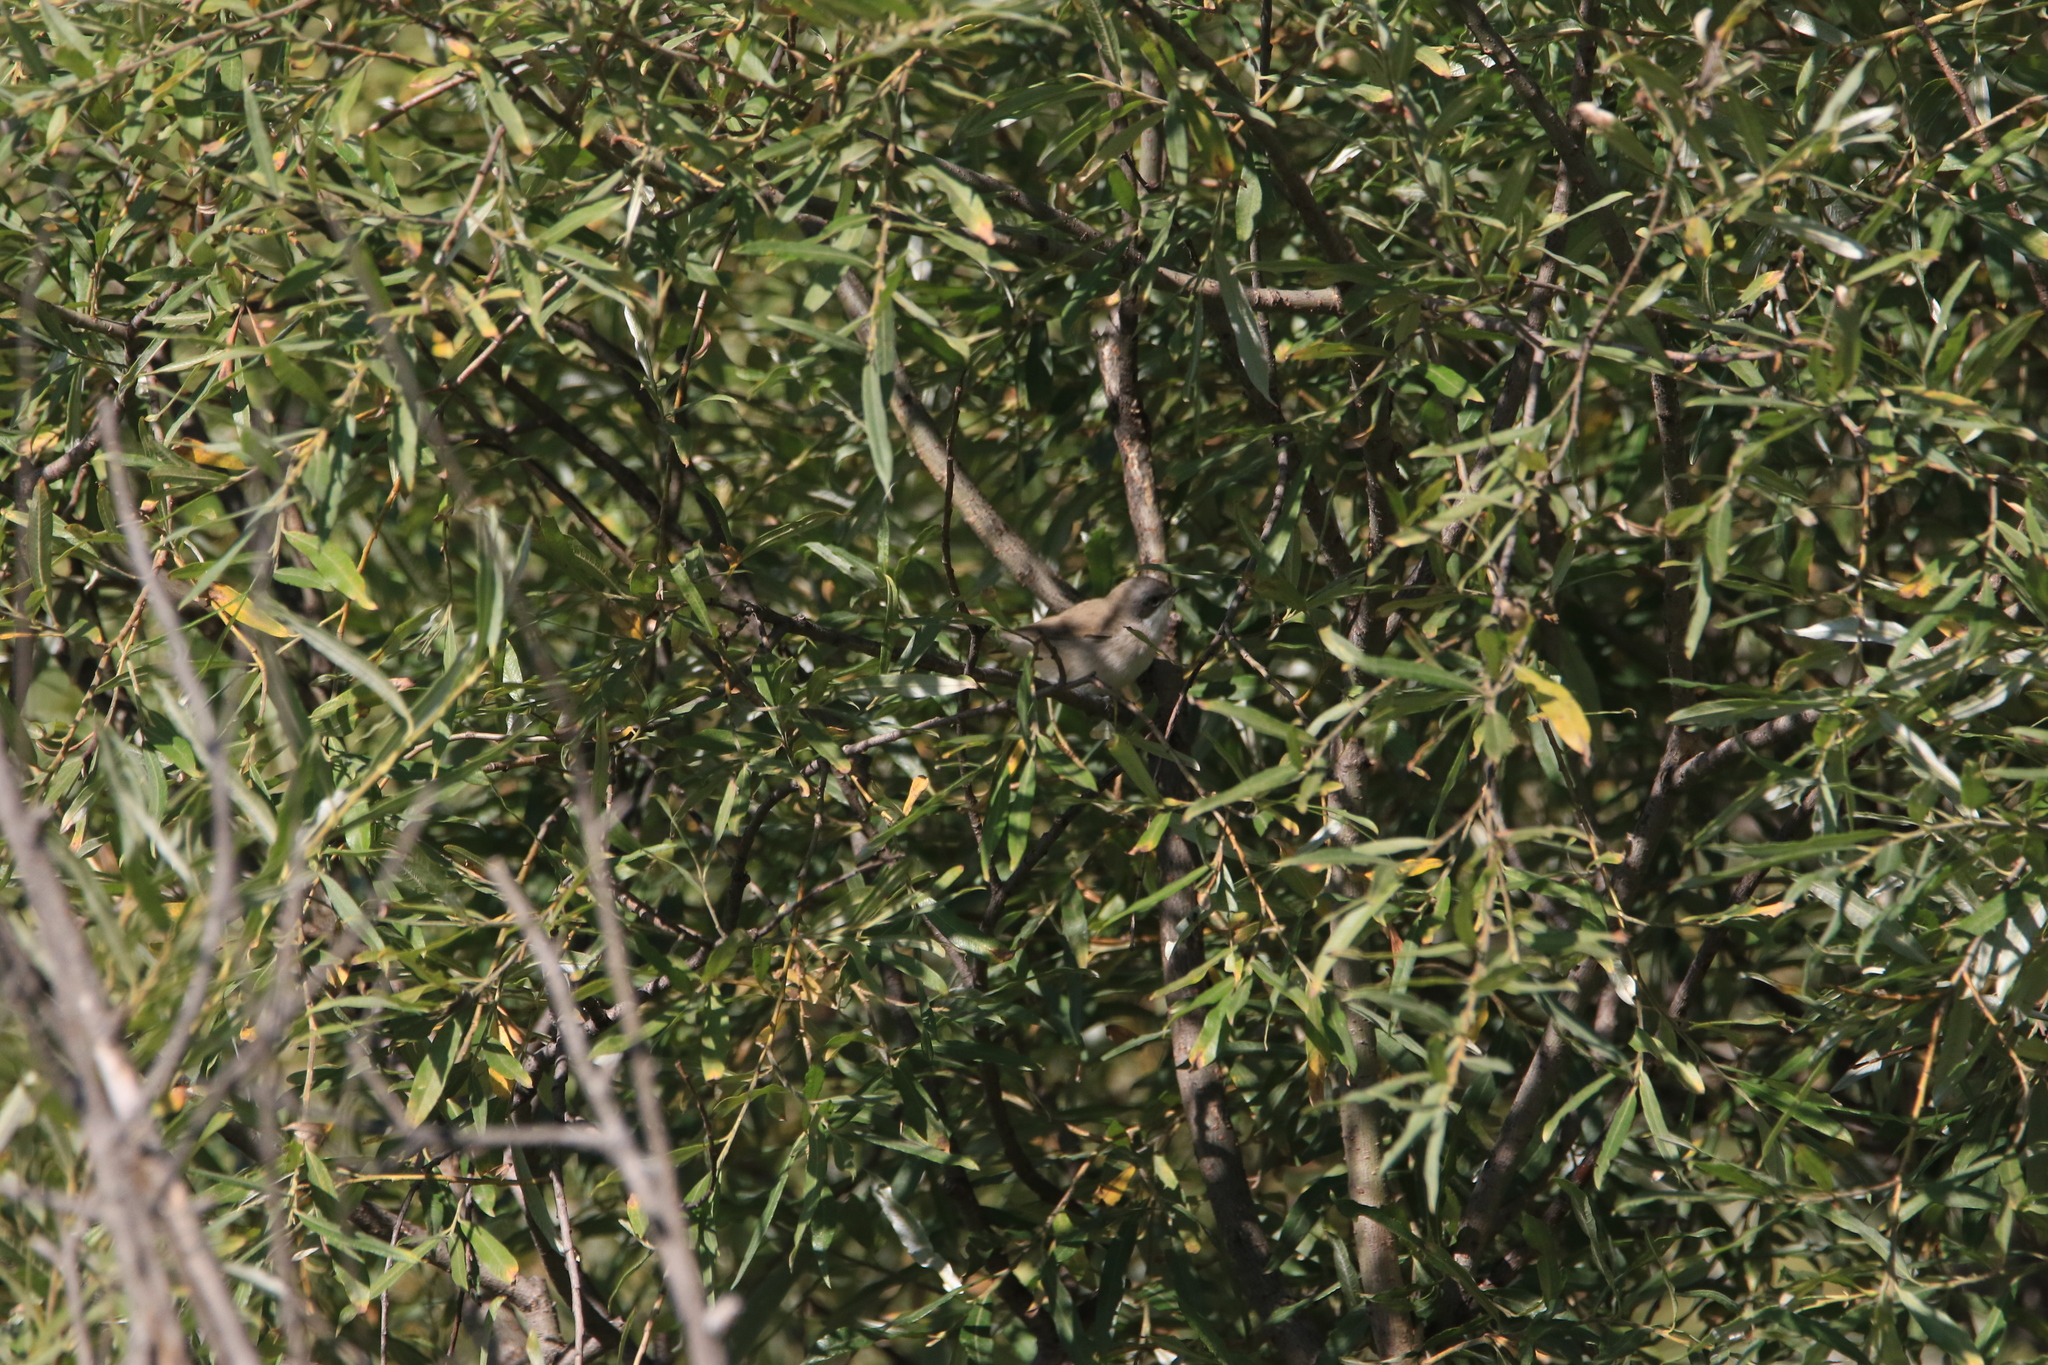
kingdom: Animalia
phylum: Chordata
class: Aves
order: Passeriformes
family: Sylviidae
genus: Sylvia
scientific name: Sylvia curruca
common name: Lesser whitethroat
